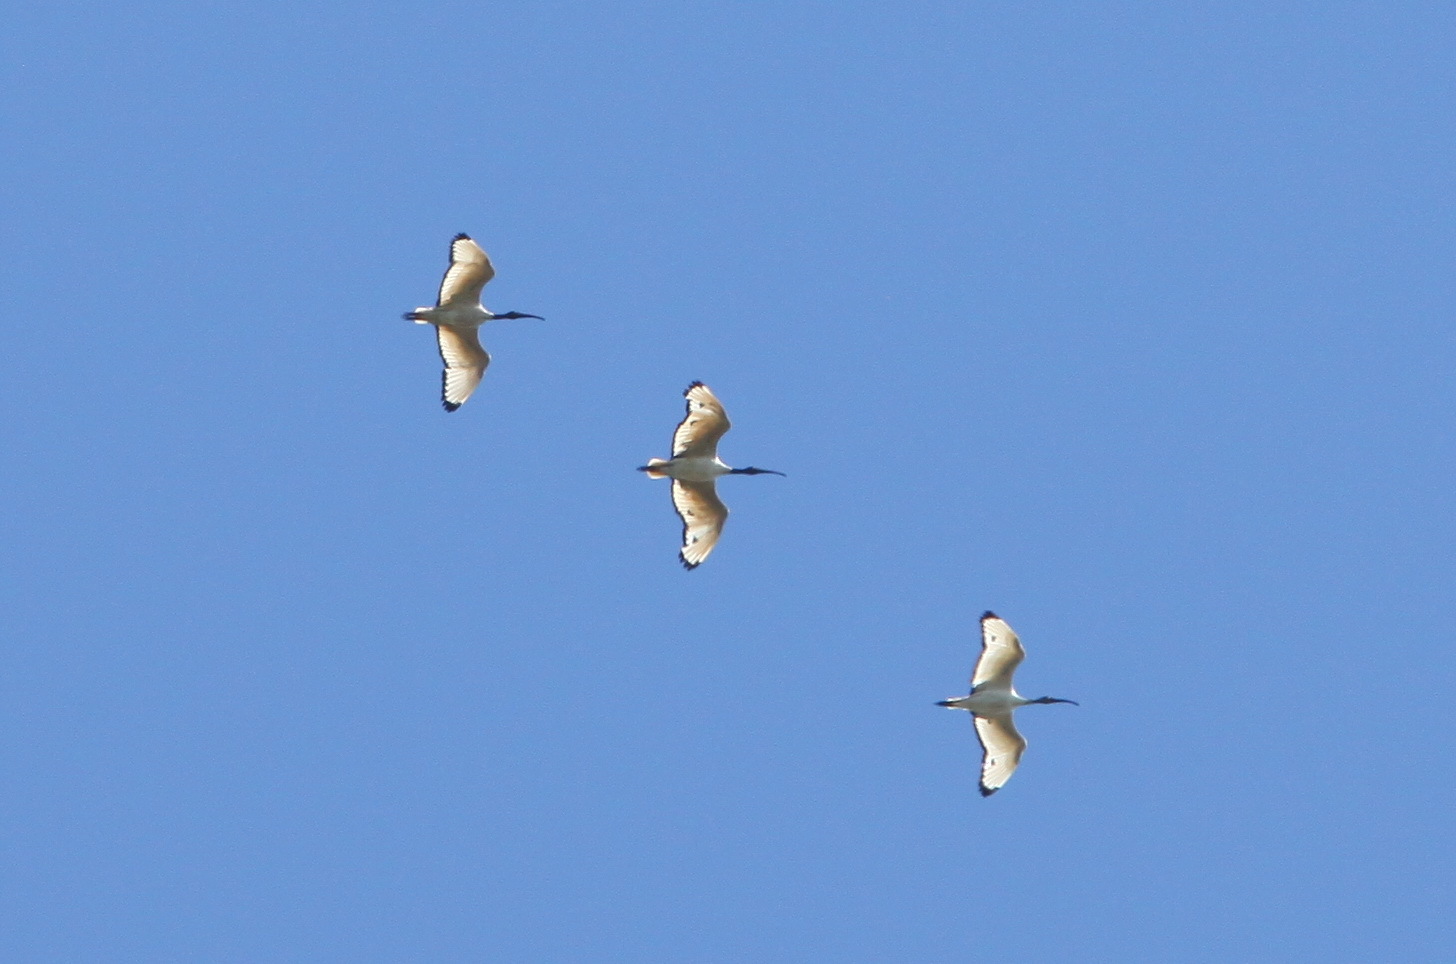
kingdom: Animalia
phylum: Chordata
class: Aves
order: Pelecaniformes
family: Threskiornithidae
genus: Threskiornis
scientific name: Threskiornis aethiopicus
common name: Sacred ibis
